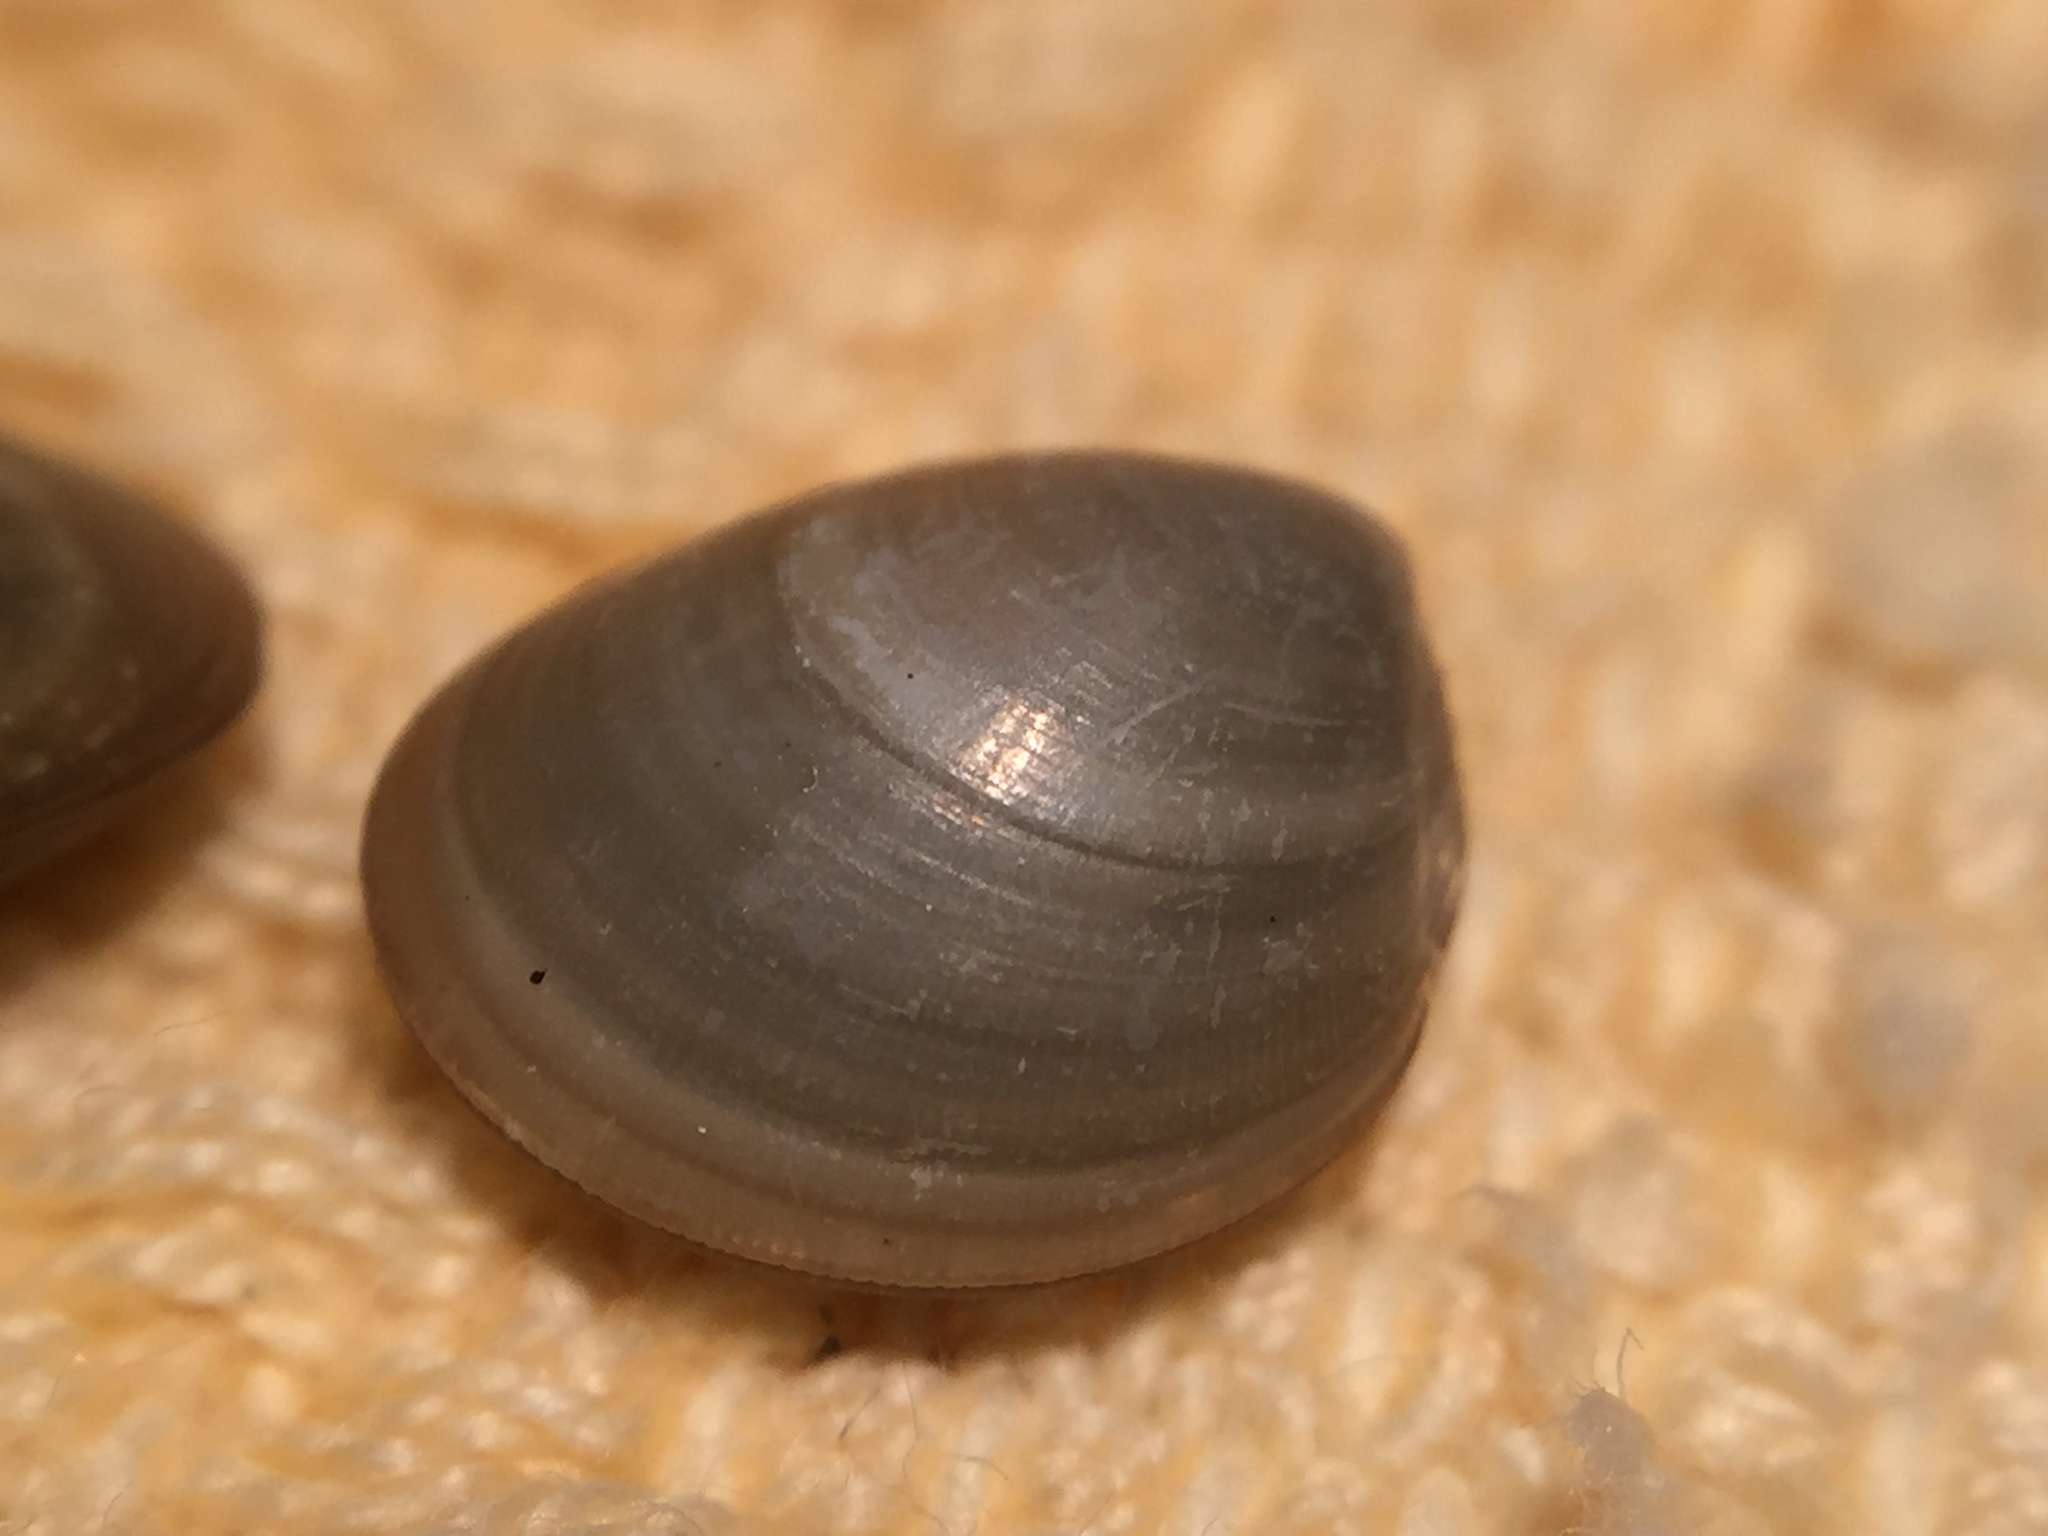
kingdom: Animalia
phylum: Mollusca
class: Bivalvia
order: Nuculida
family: Nuculidae
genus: Nucula
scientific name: Nucula nitidula
